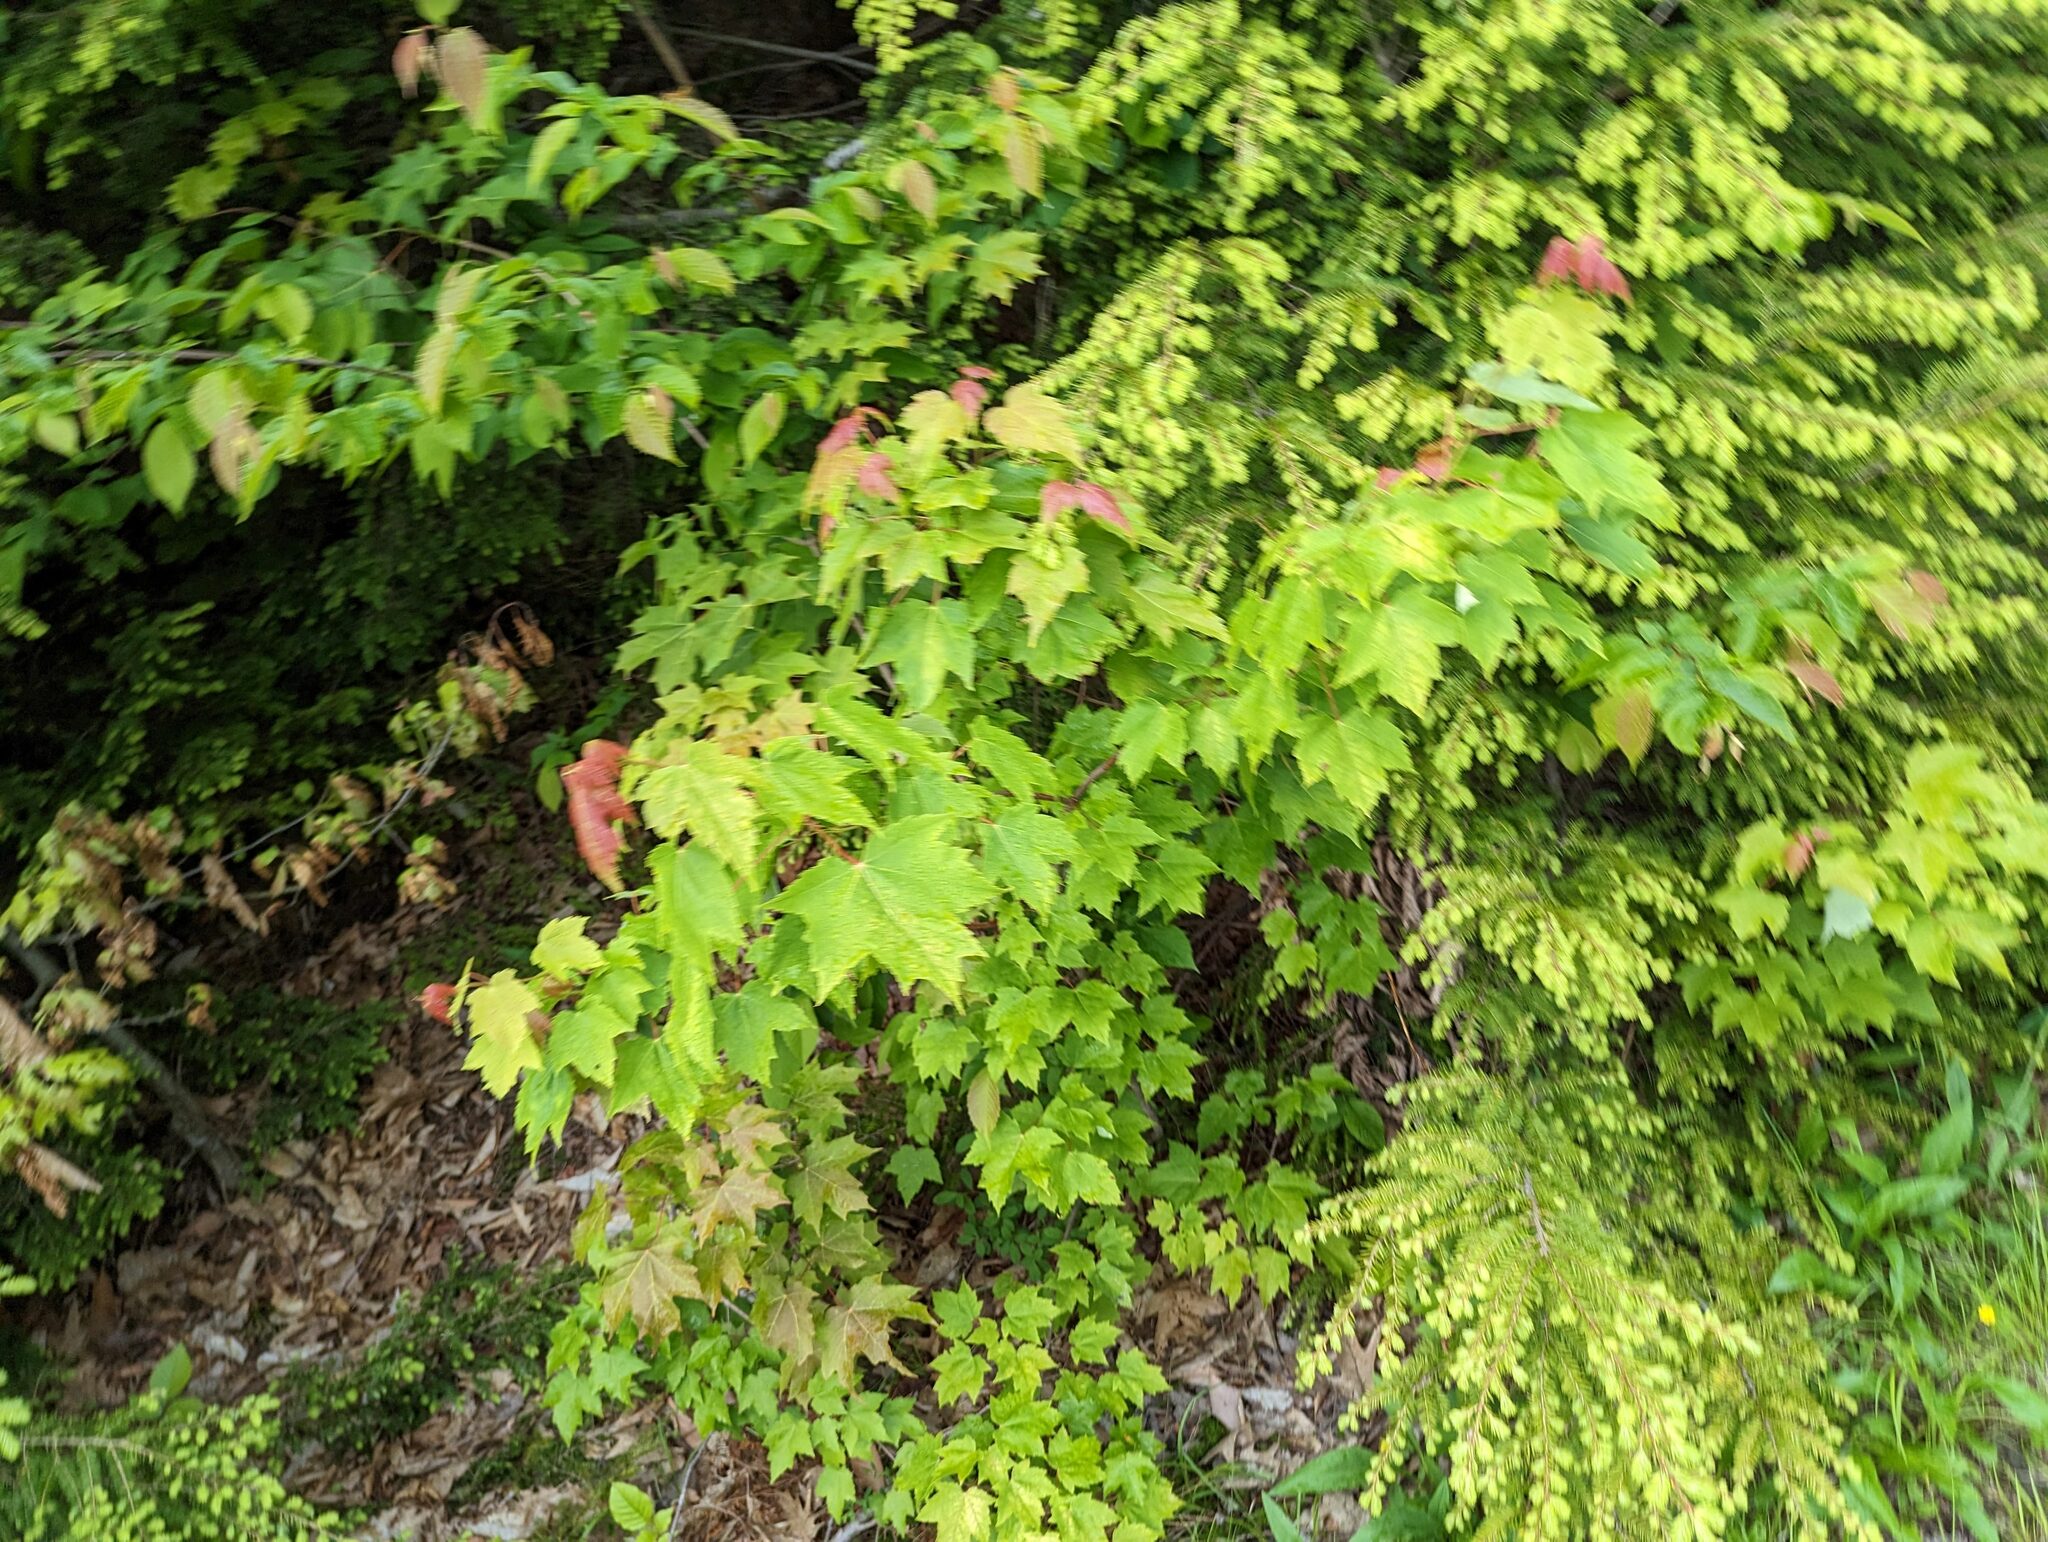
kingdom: Plantae
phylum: Tracheophyta
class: Magnoliopsida
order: Sapindales
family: Sapindaceae
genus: Acer
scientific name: Acer rubrum
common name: Red maple
